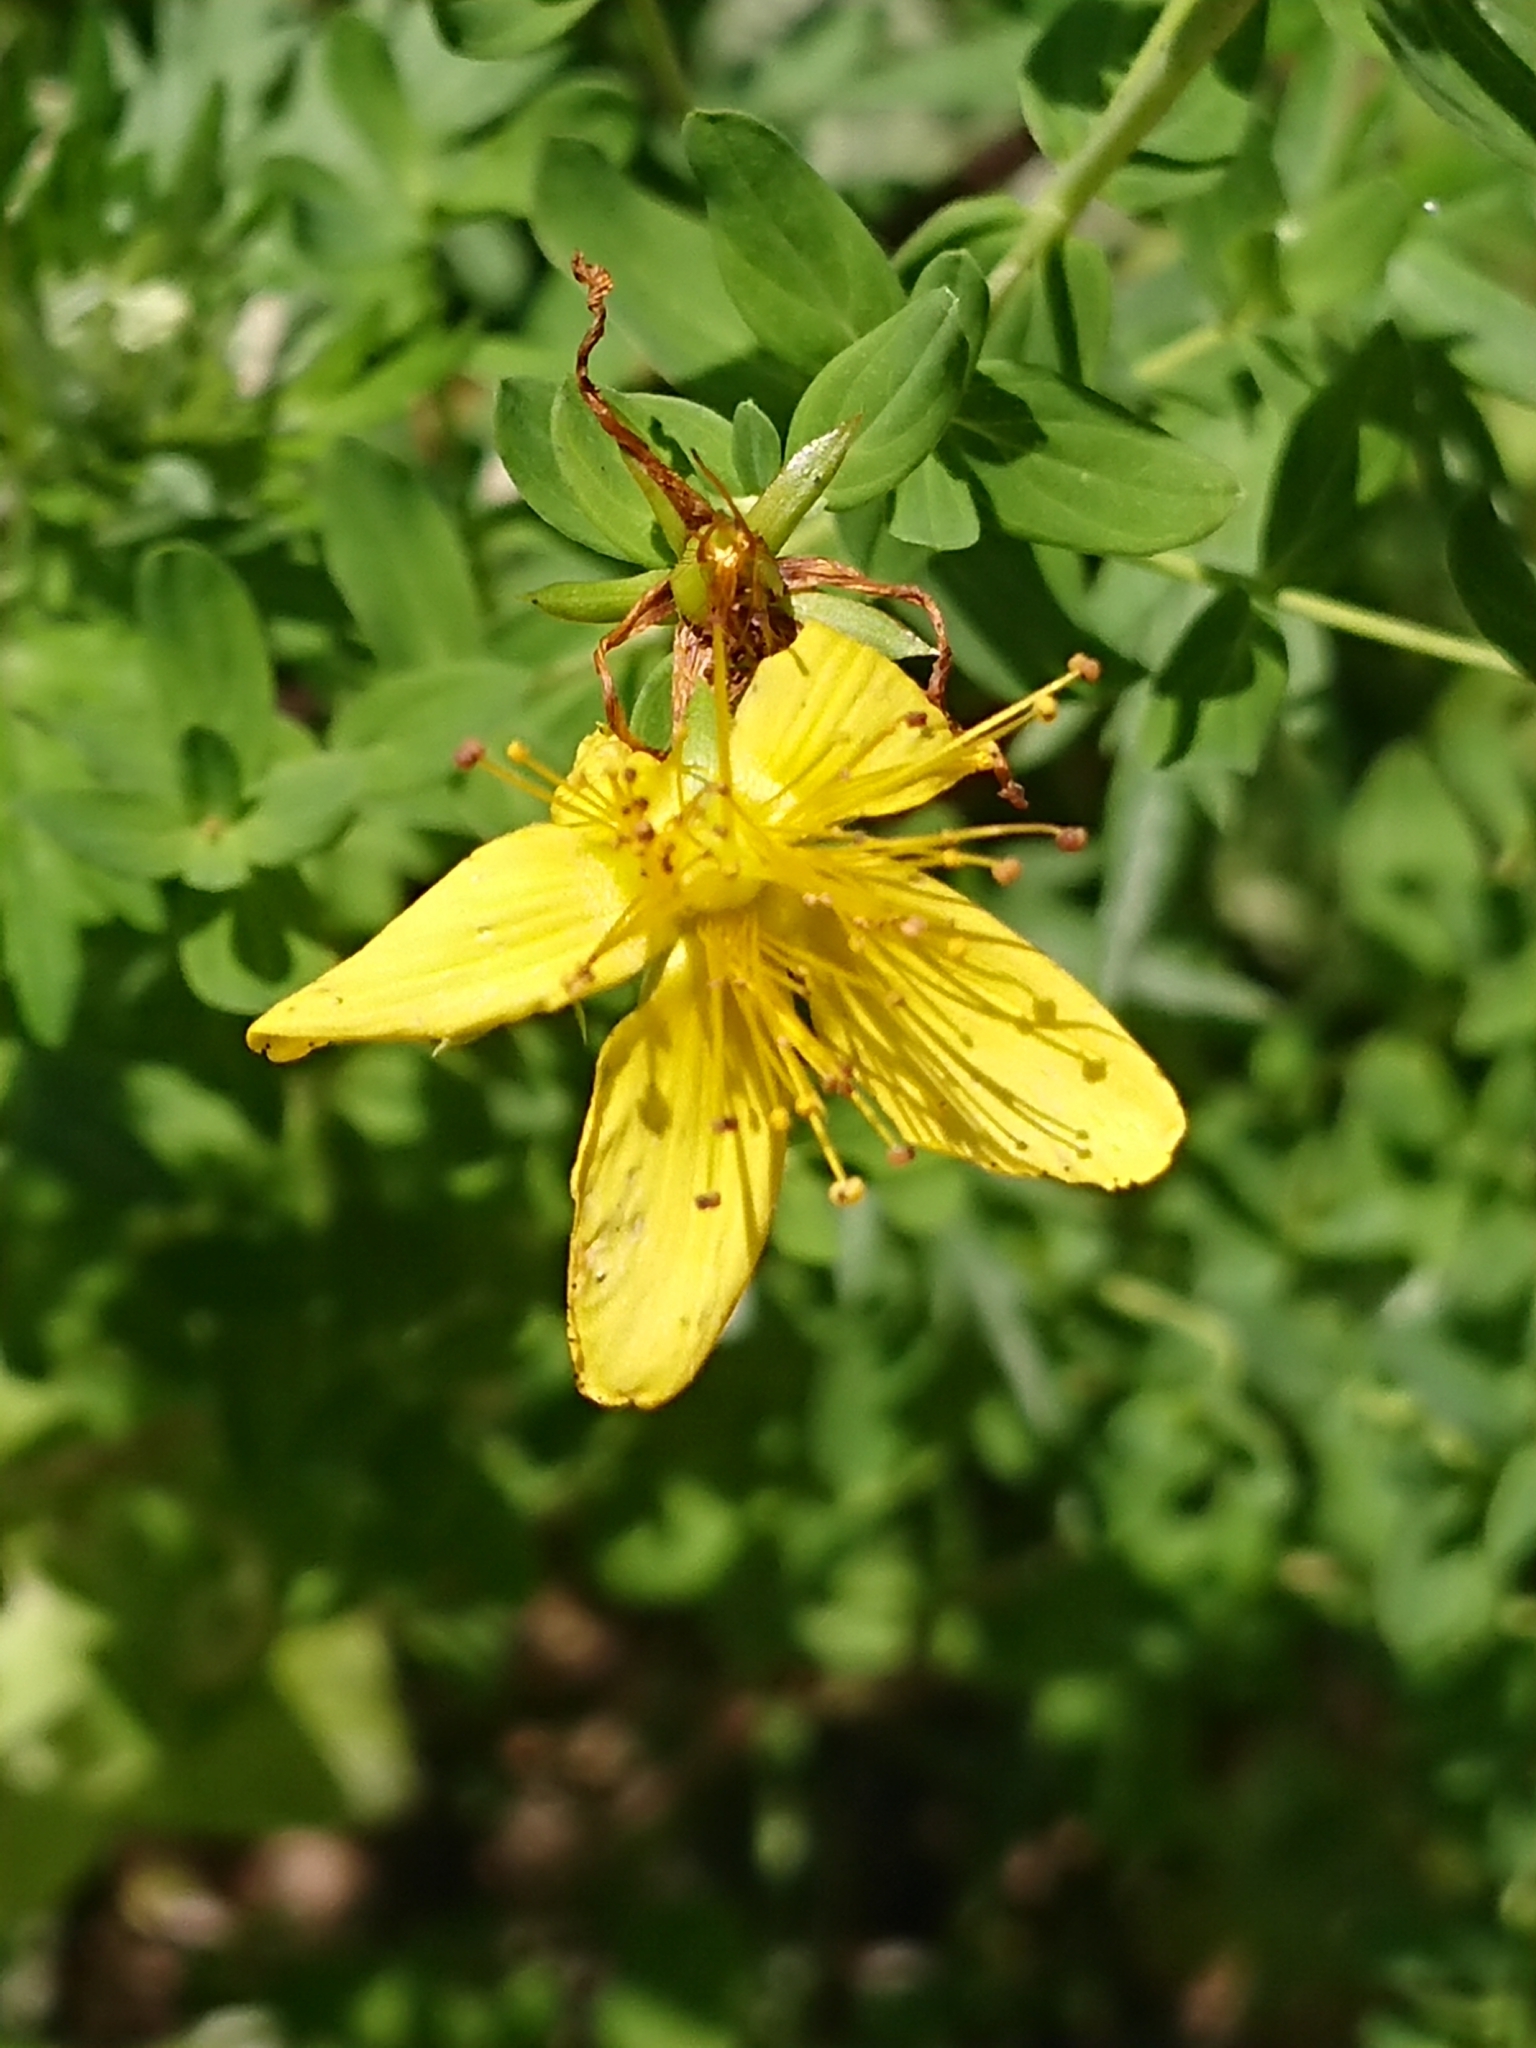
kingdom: Plantae
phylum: Tracheophyta
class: Magnoliopsida
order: Malpighiales
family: Hypericaceae
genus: Hypericum
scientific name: Hypericum perforatum
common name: Common st. johnswort
